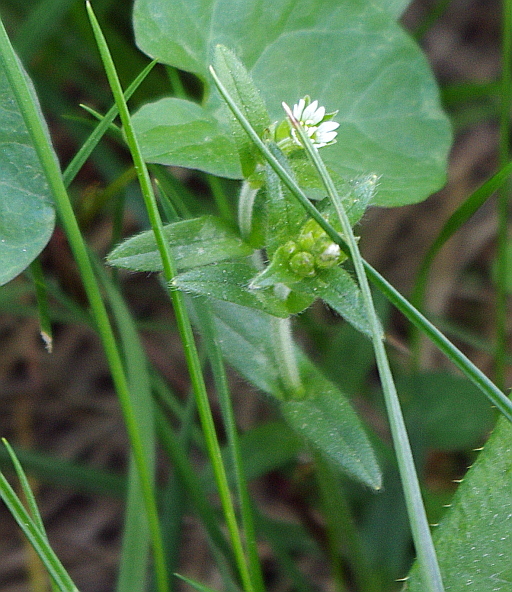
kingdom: Plantae
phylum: Tracheophyta
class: Magnoliopsida
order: Caryophyllales
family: Caryophyllaceae
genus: Cerastium
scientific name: Cerastium holosteoides
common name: Big chickweed
